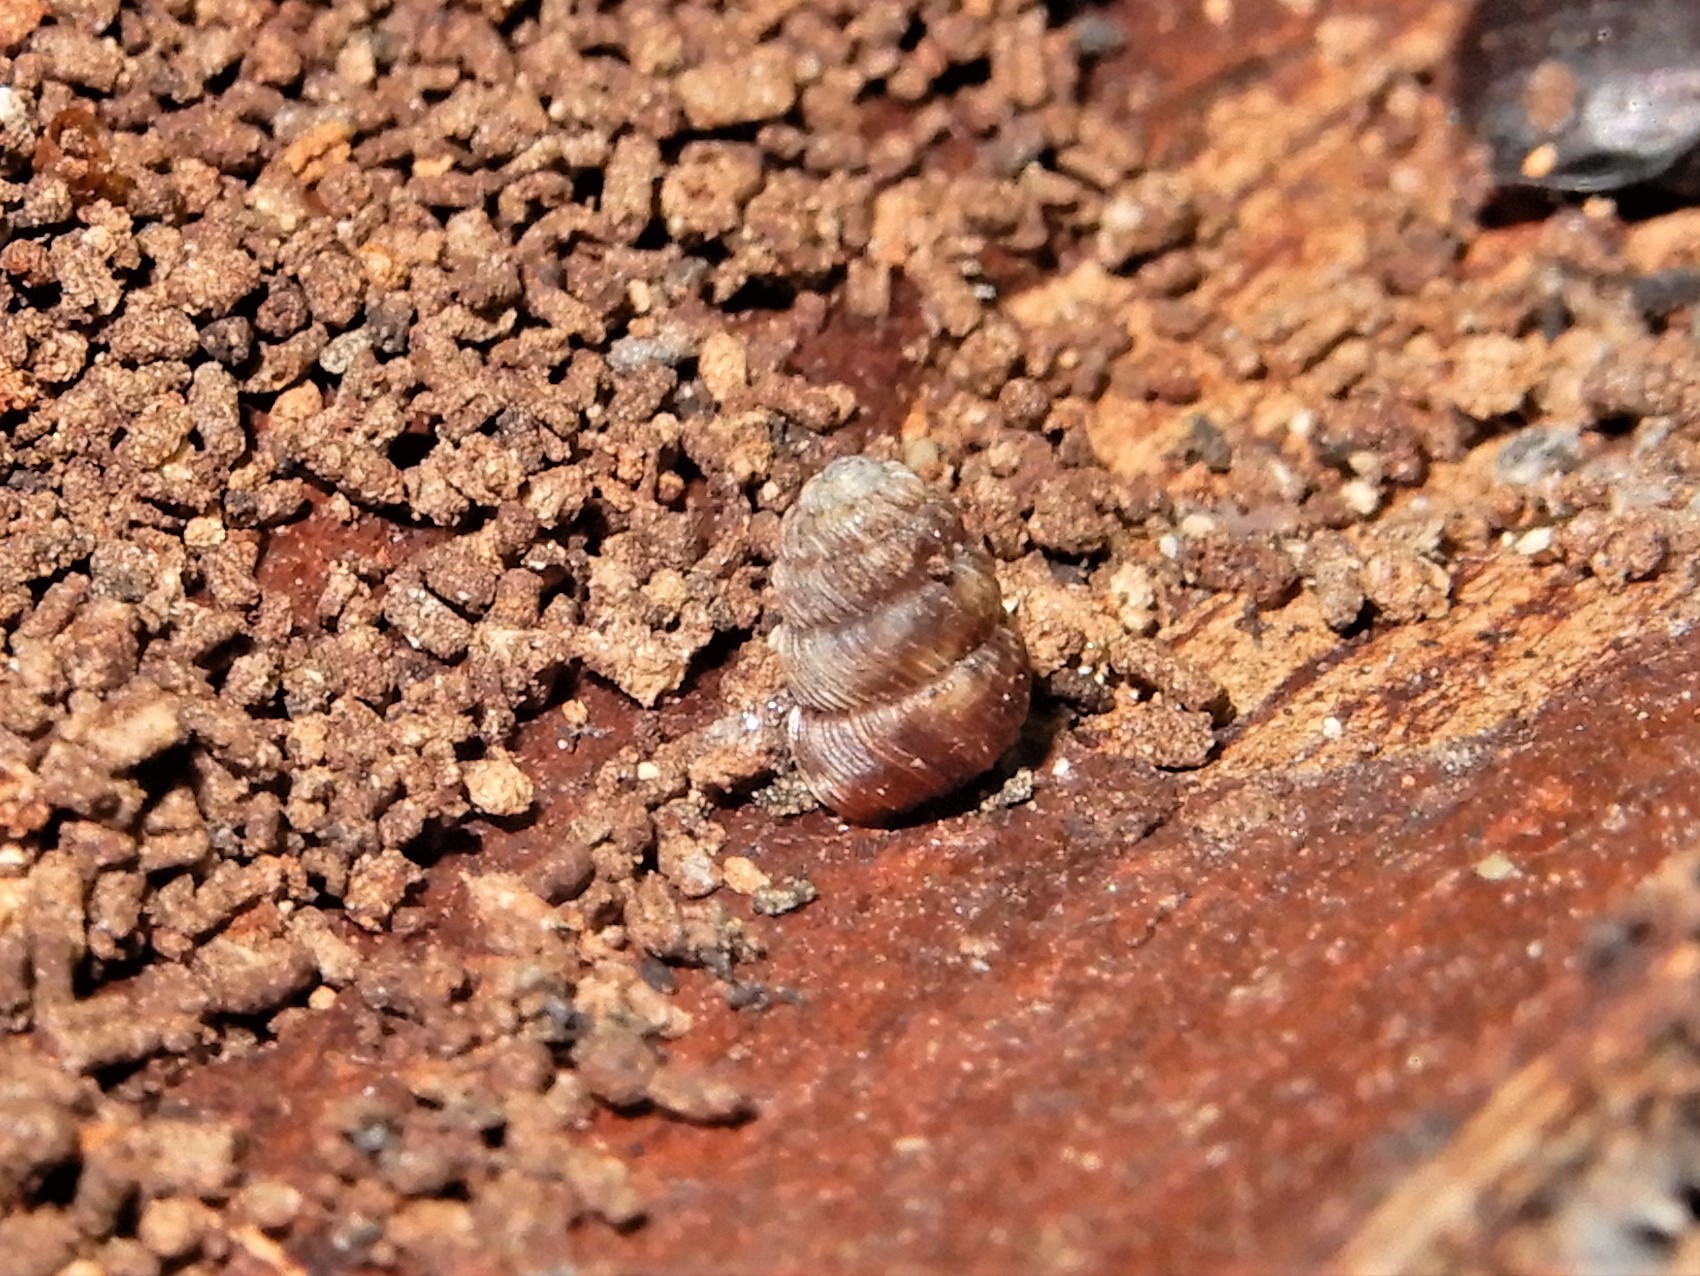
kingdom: Animalia
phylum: Mollusca
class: Gastropoda
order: Stylommatophora
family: Charopidae
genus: Phenacharopa
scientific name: Phenacharopa novoseelandica
